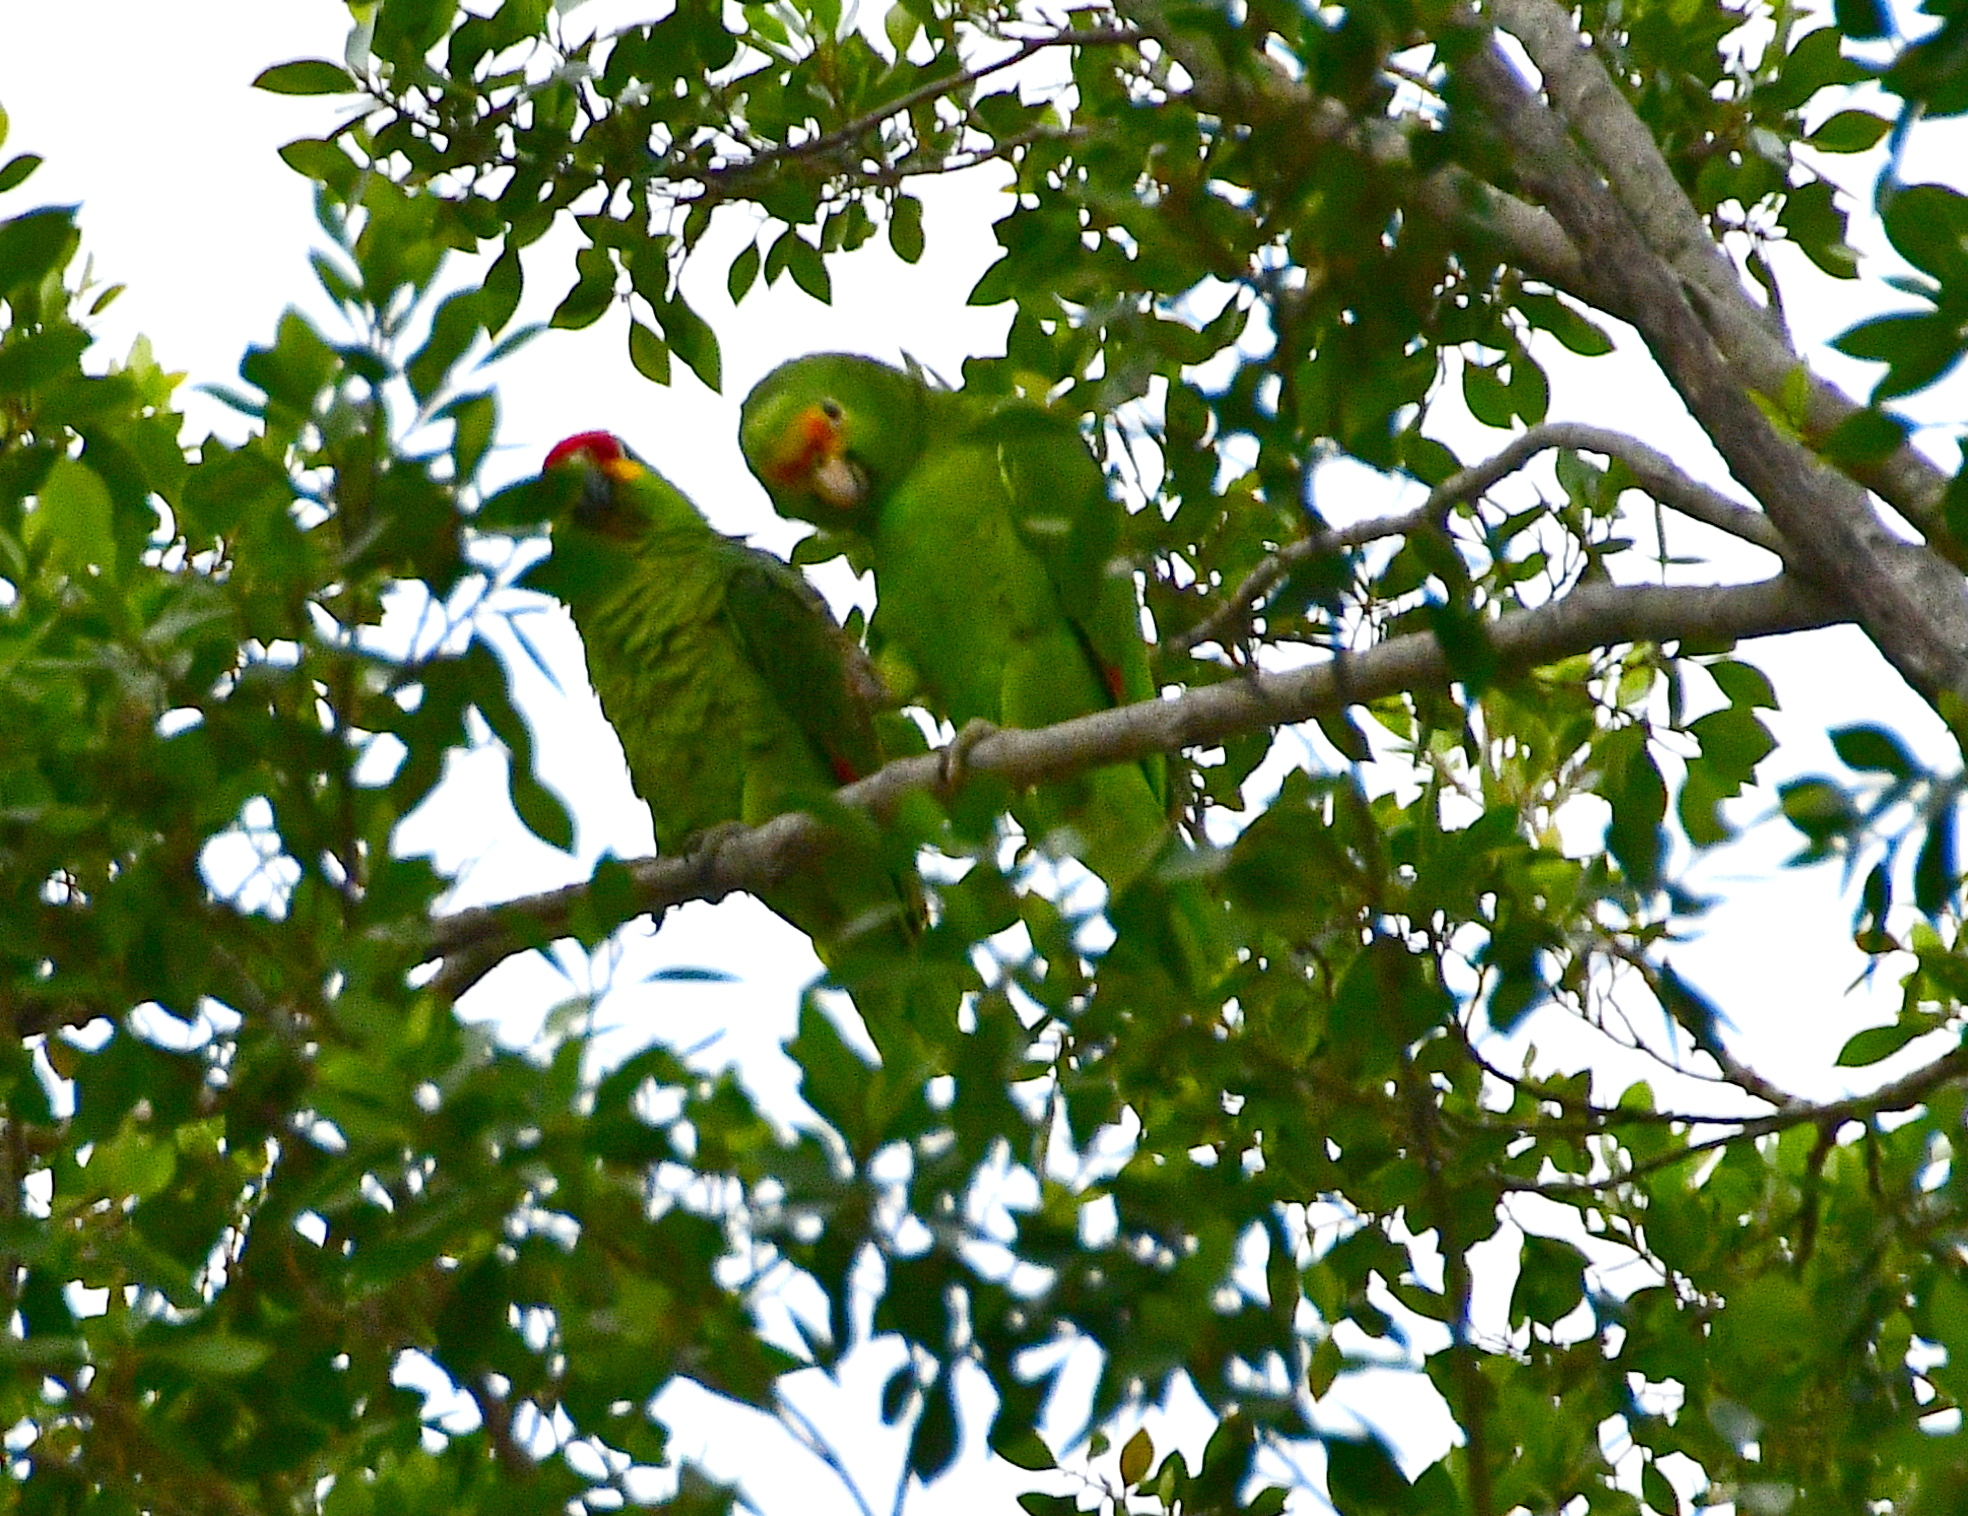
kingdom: Animalia
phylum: Chordata
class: Aves
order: Psittaciformes
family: Psittacidae
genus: Amazona
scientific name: Amazona autumnalis
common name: Red-lored amazon
